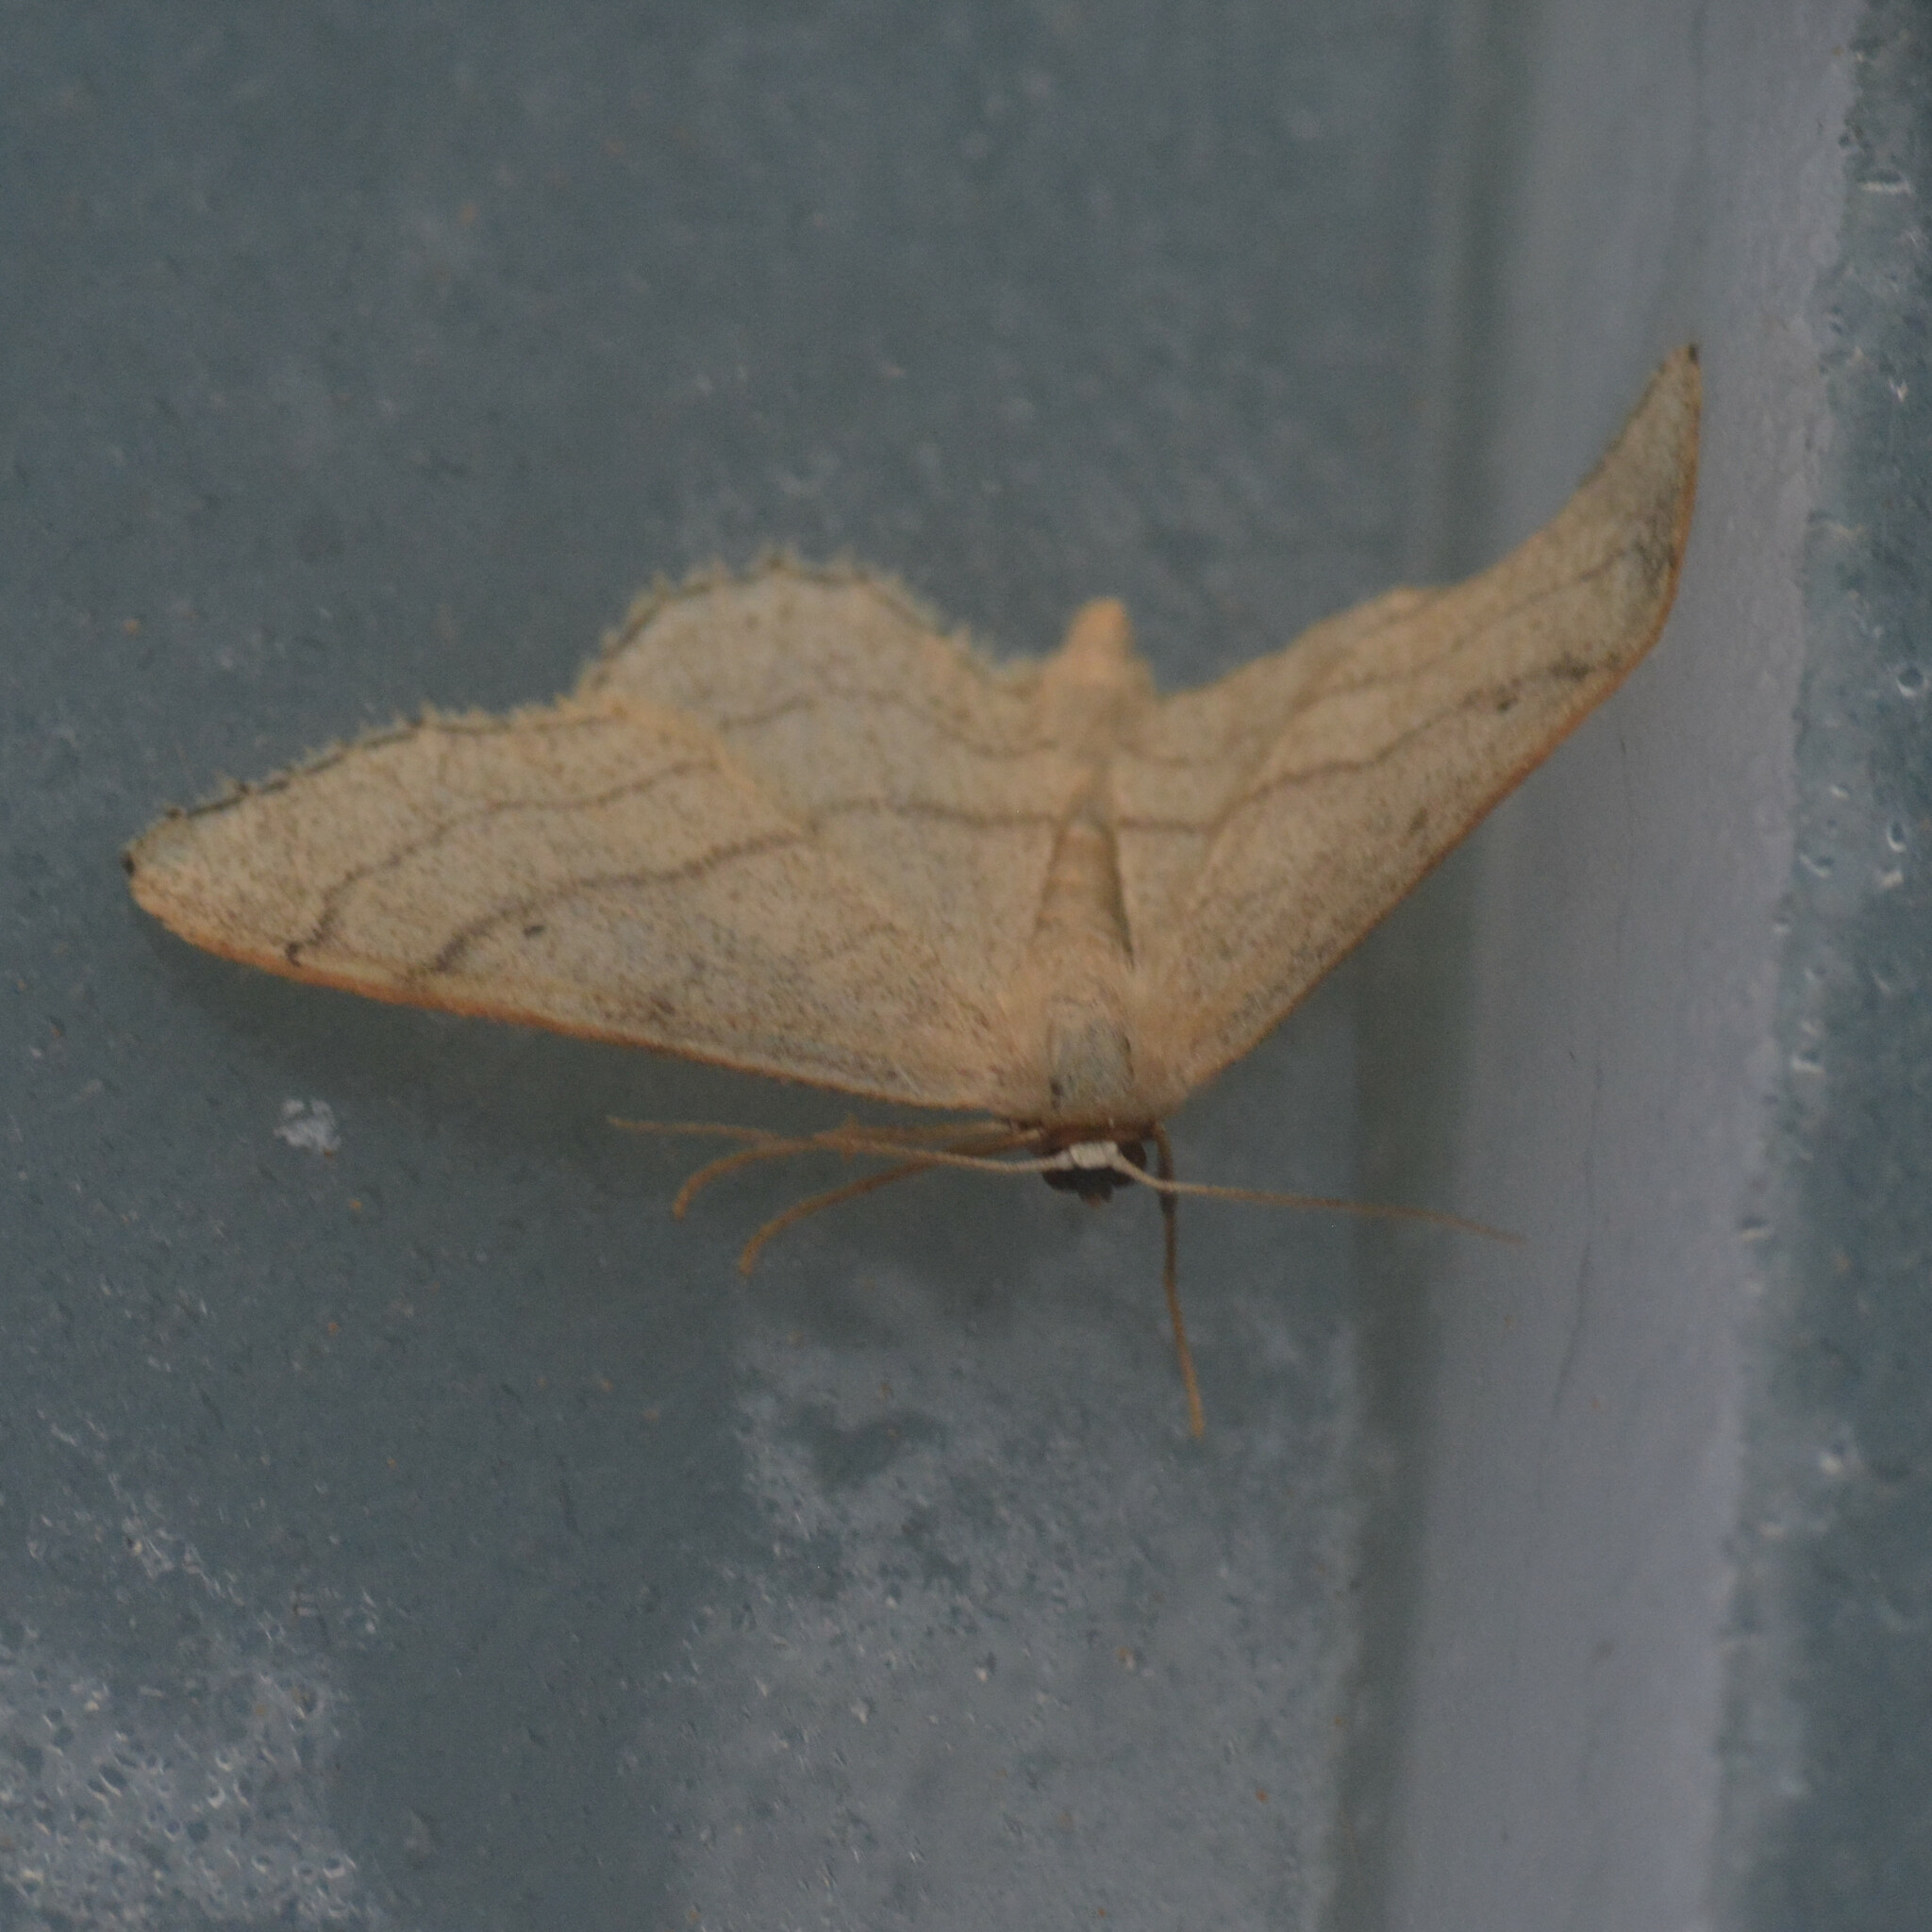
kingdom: Animalia
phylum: Arthropoda
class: Insecta
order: Lepidoptera
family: Geometridae
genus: Idaea
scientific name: Idaea aversata
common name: Riband wave
